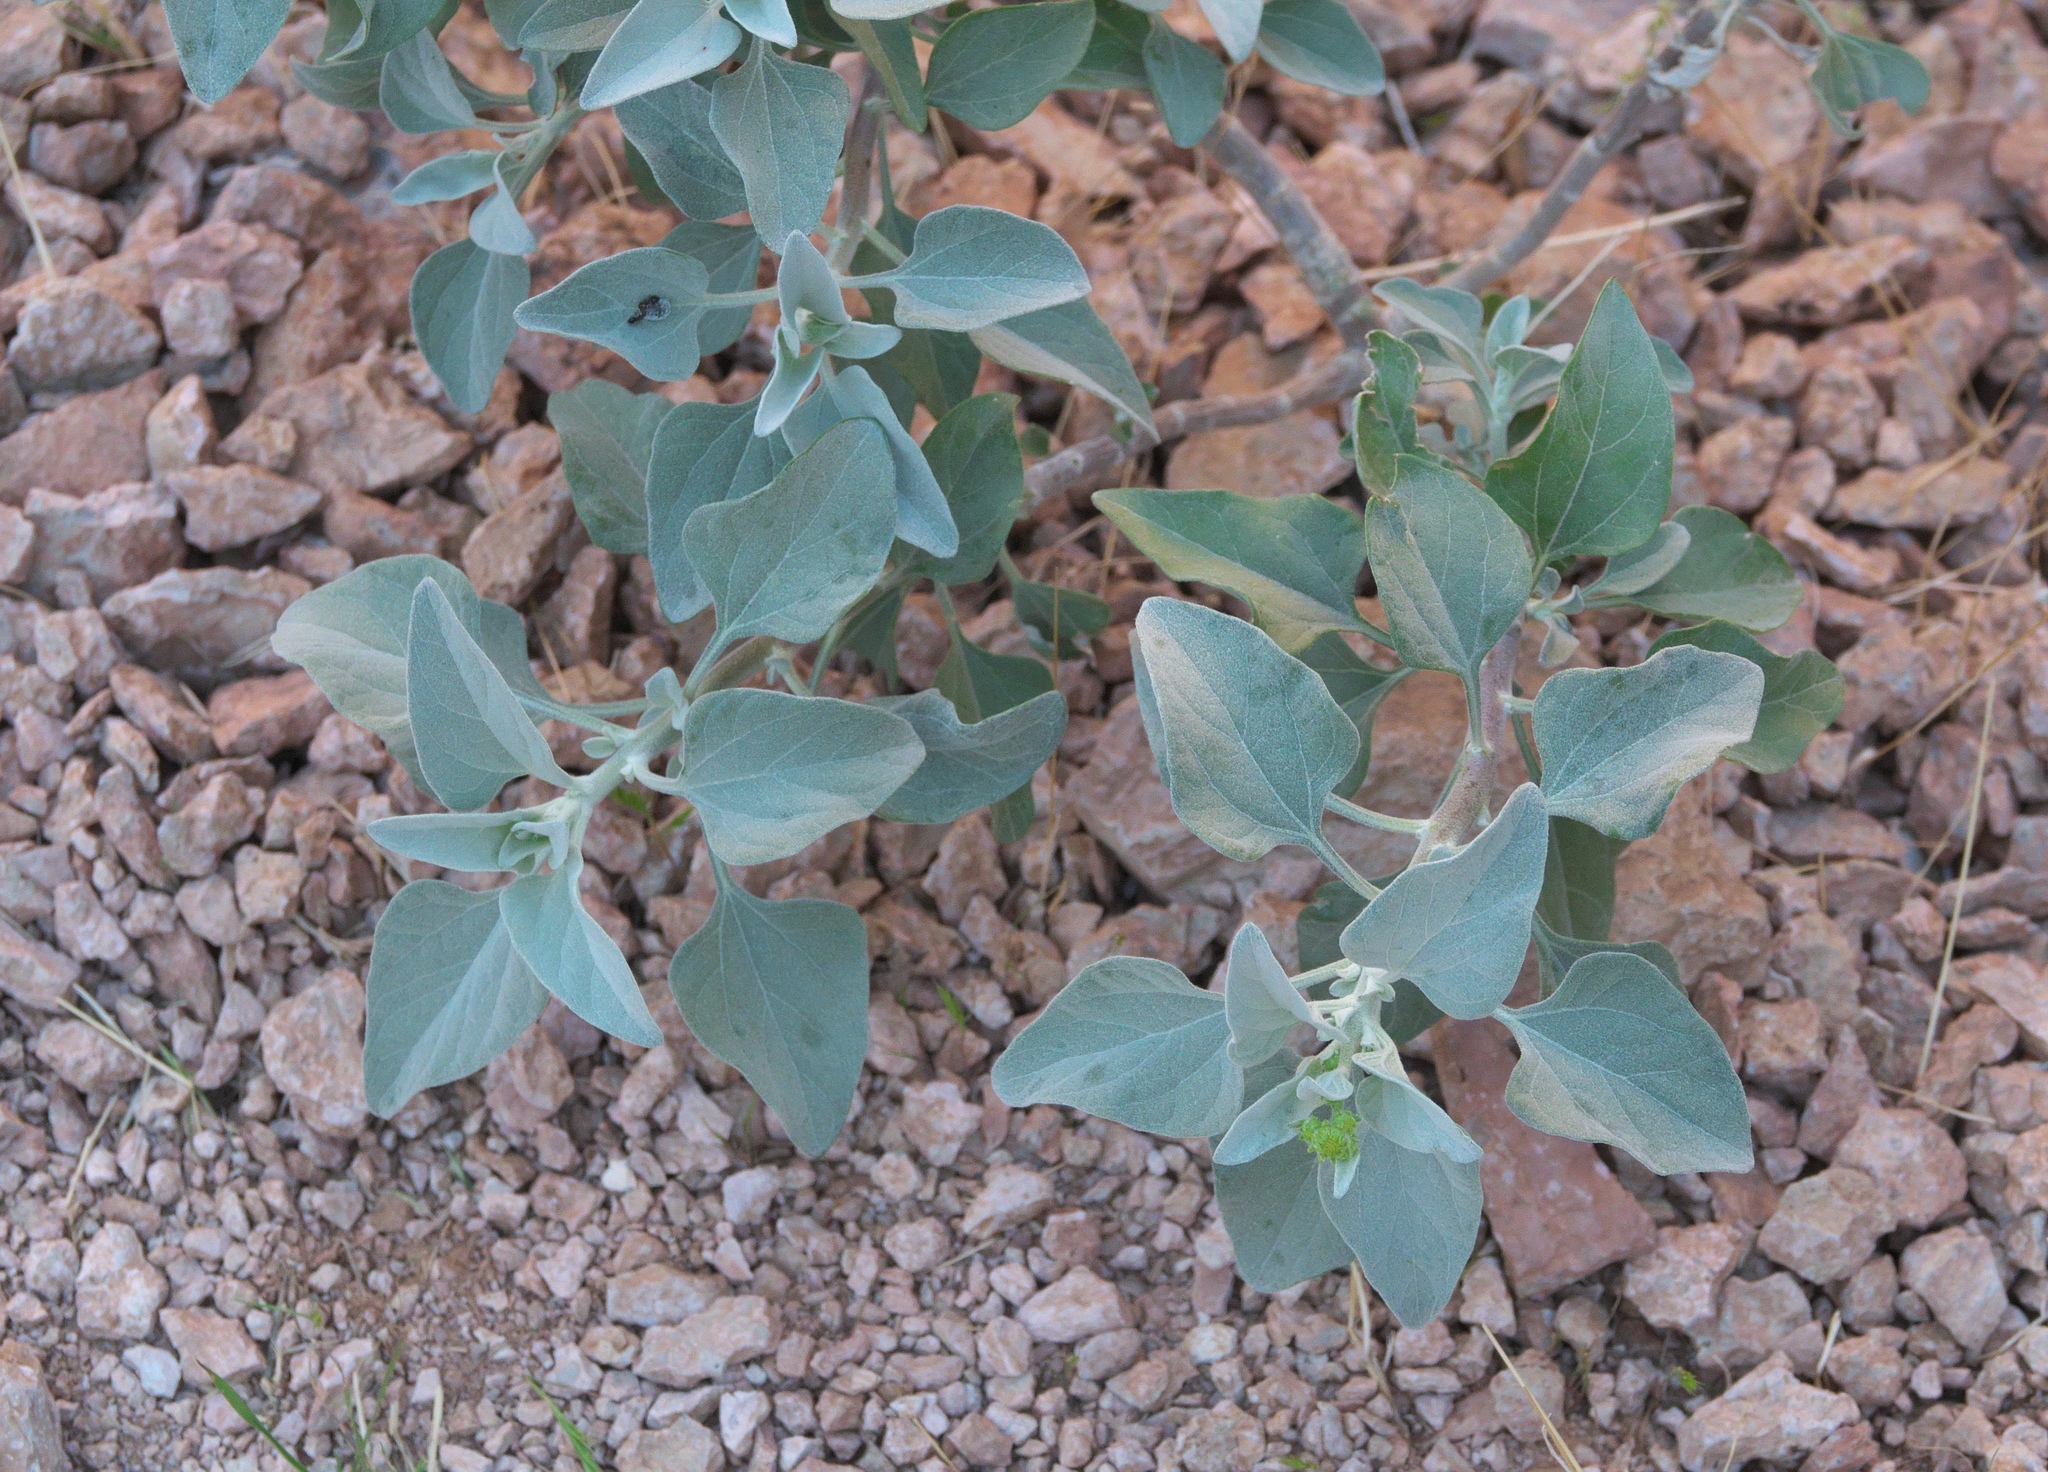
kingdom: Plantae
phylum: Tracheophyta
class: Magnoliopsida
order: Asterales
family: Asteraceae
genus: Encelia
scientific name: Encelia farinosa
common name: Brittlebush
